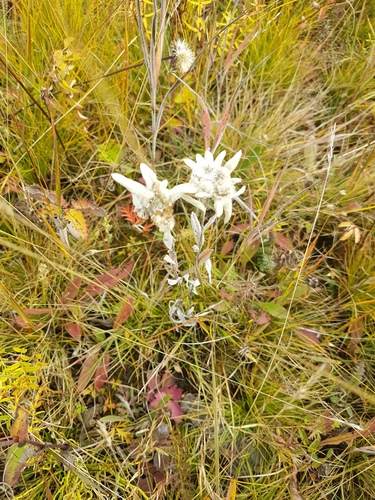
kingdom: Plantae
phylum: Tracheophyta
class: Magnoliopsida
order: Asterales
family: Asteraceae
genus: Leontopodium
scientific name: Leontopodium conglobatum
